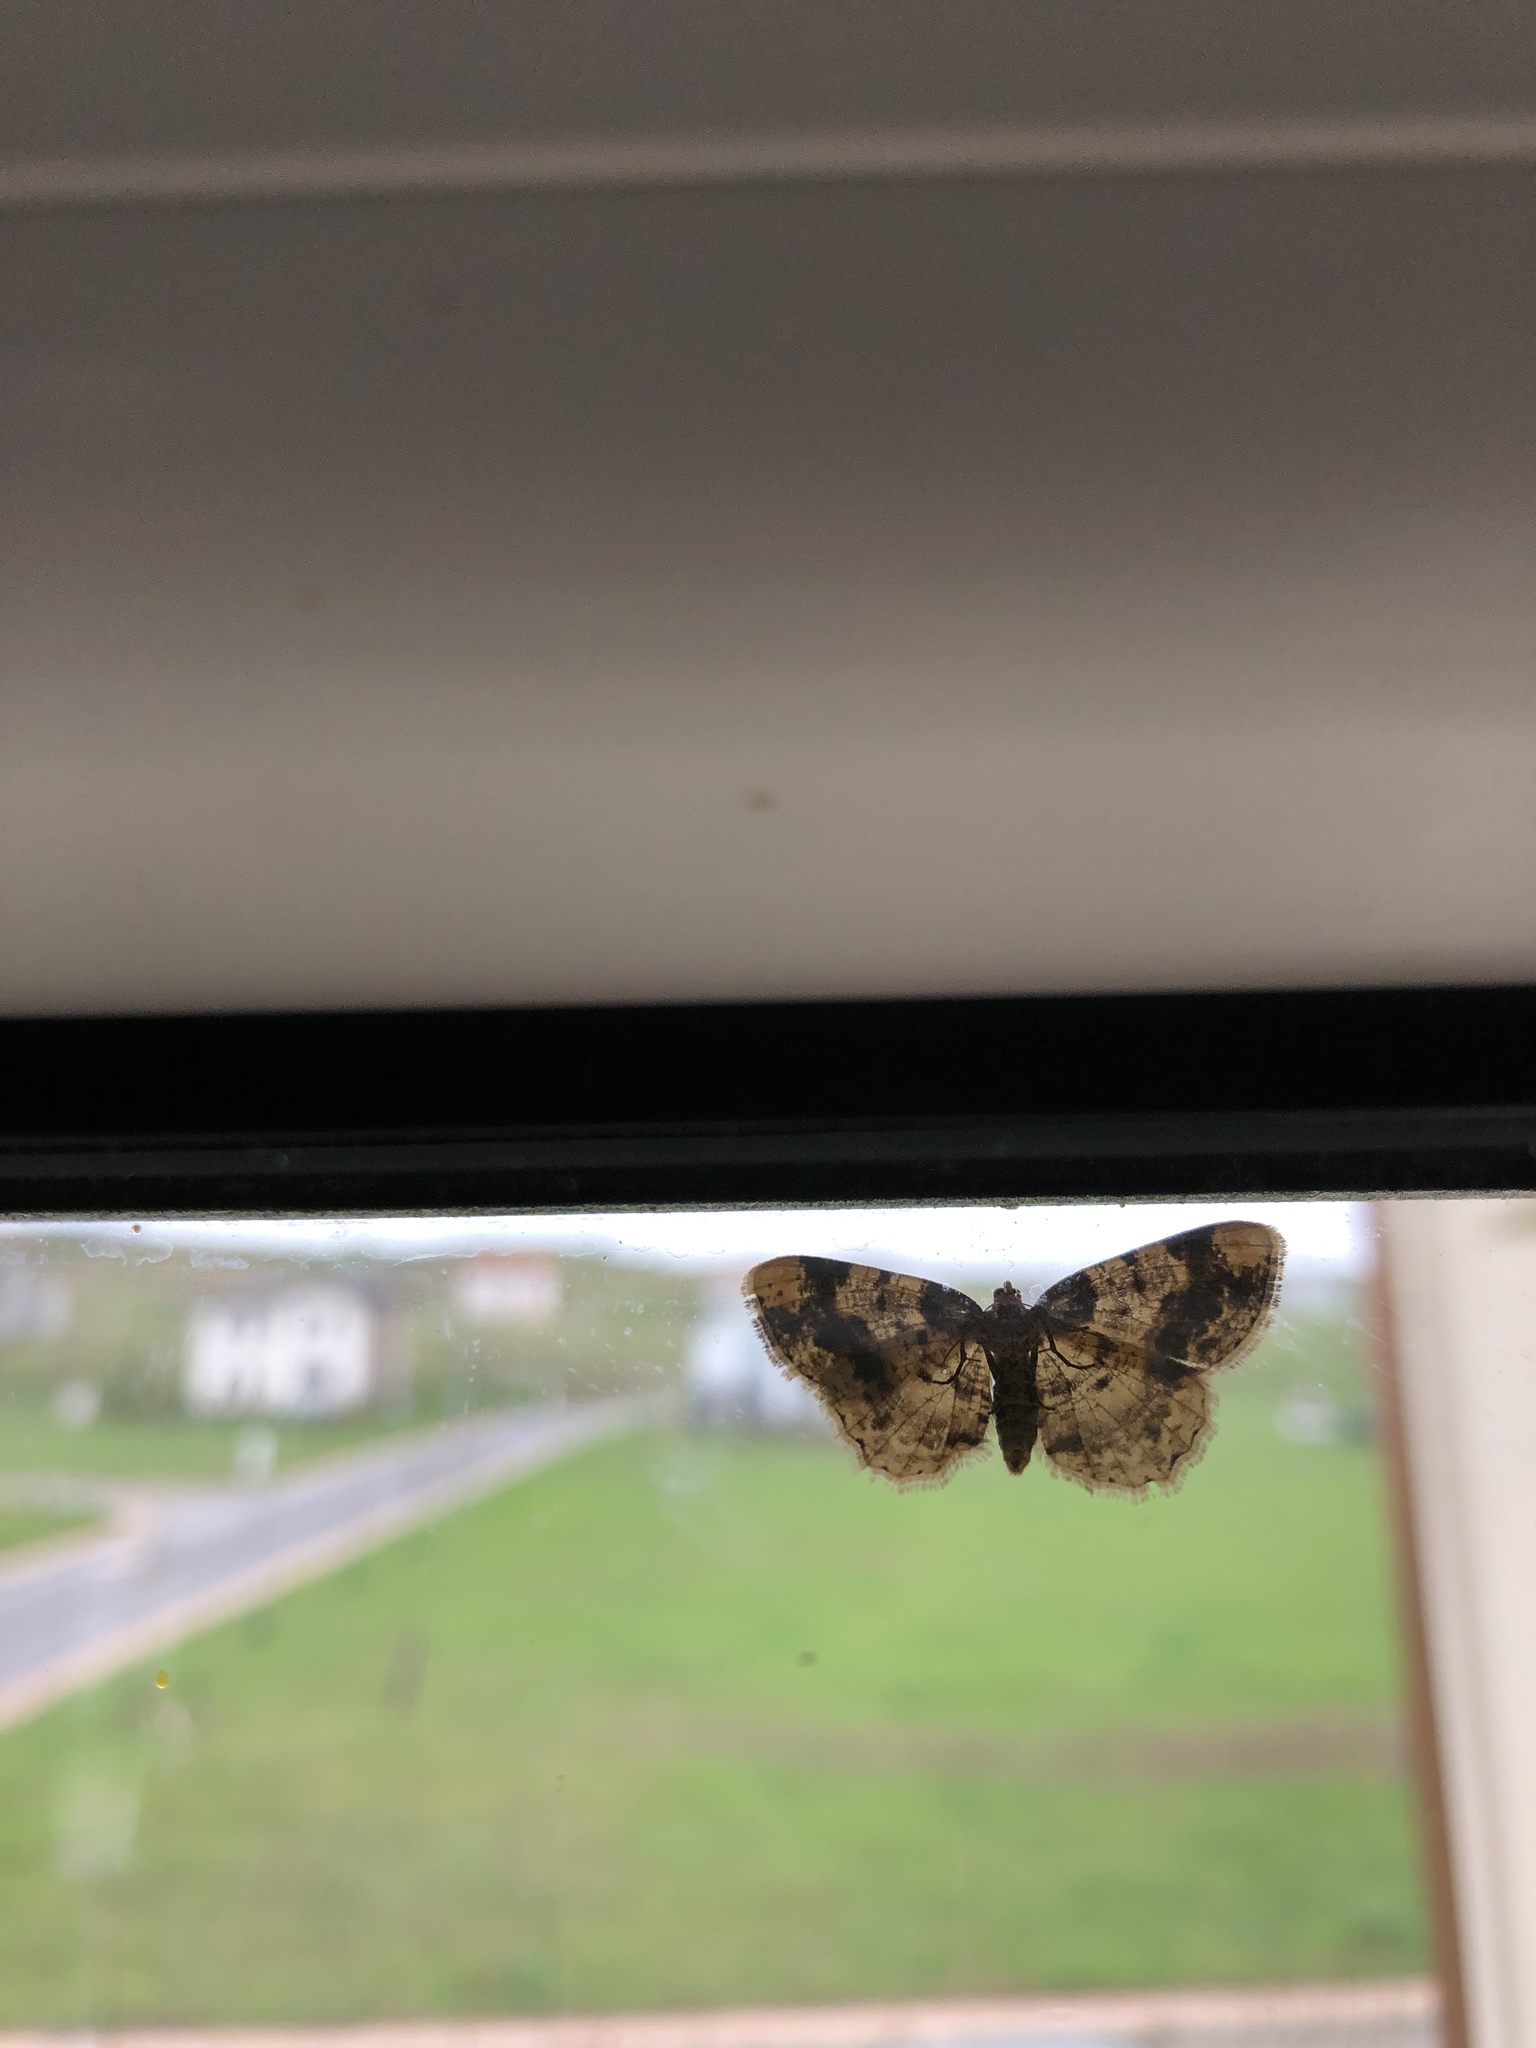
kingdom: Animalia
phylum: Arthropoda
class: Insecta
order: Lepidoptera
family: Geometridae
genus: Ligdia
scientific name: Ligdia adustata
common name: Scorched carpet
